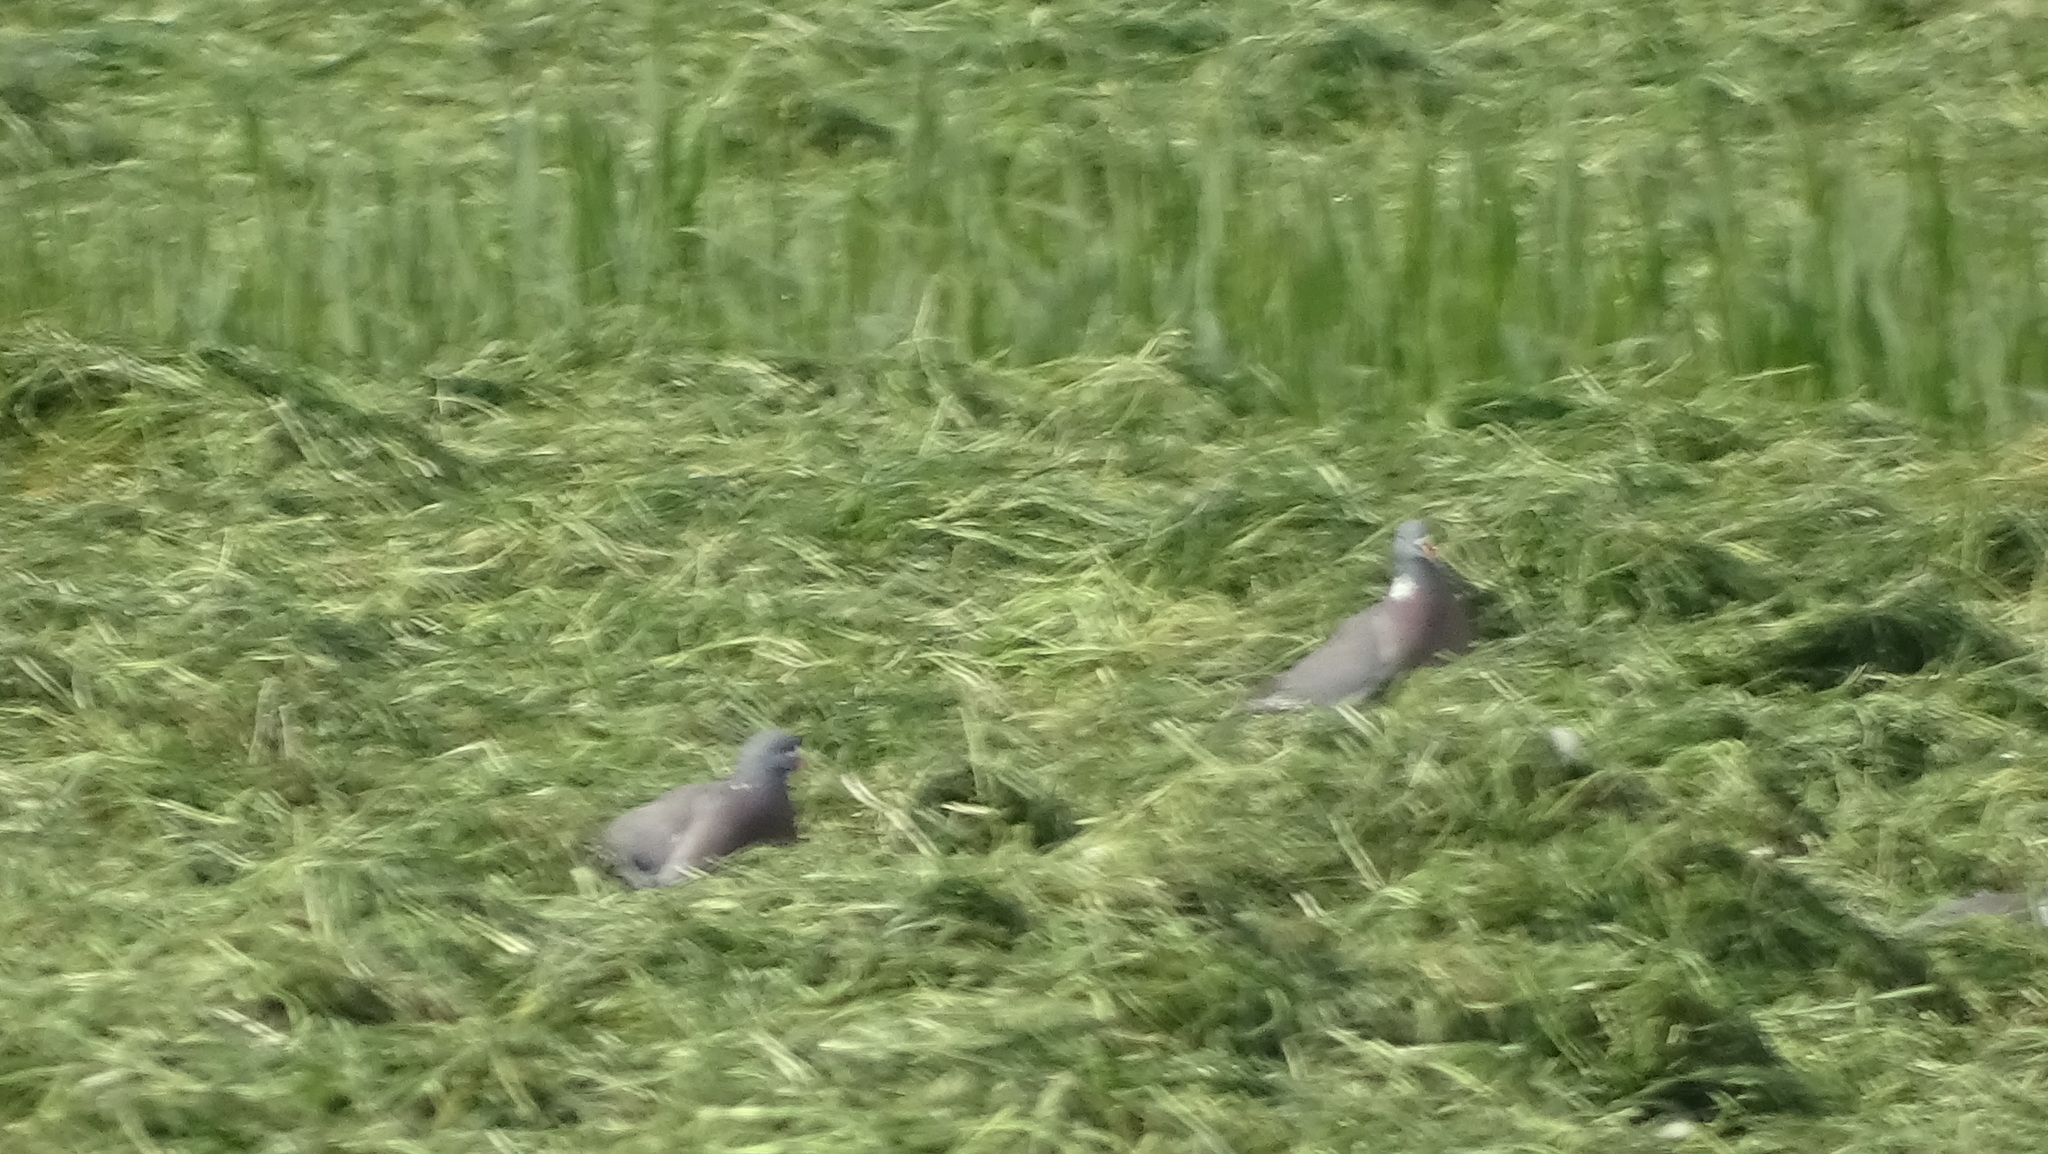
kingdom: Animalia
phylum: Chordata
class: Aves
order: Columbiformes
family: Columbidae
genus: Columba
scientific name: Columba palumbus
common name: Common wood pigeon
